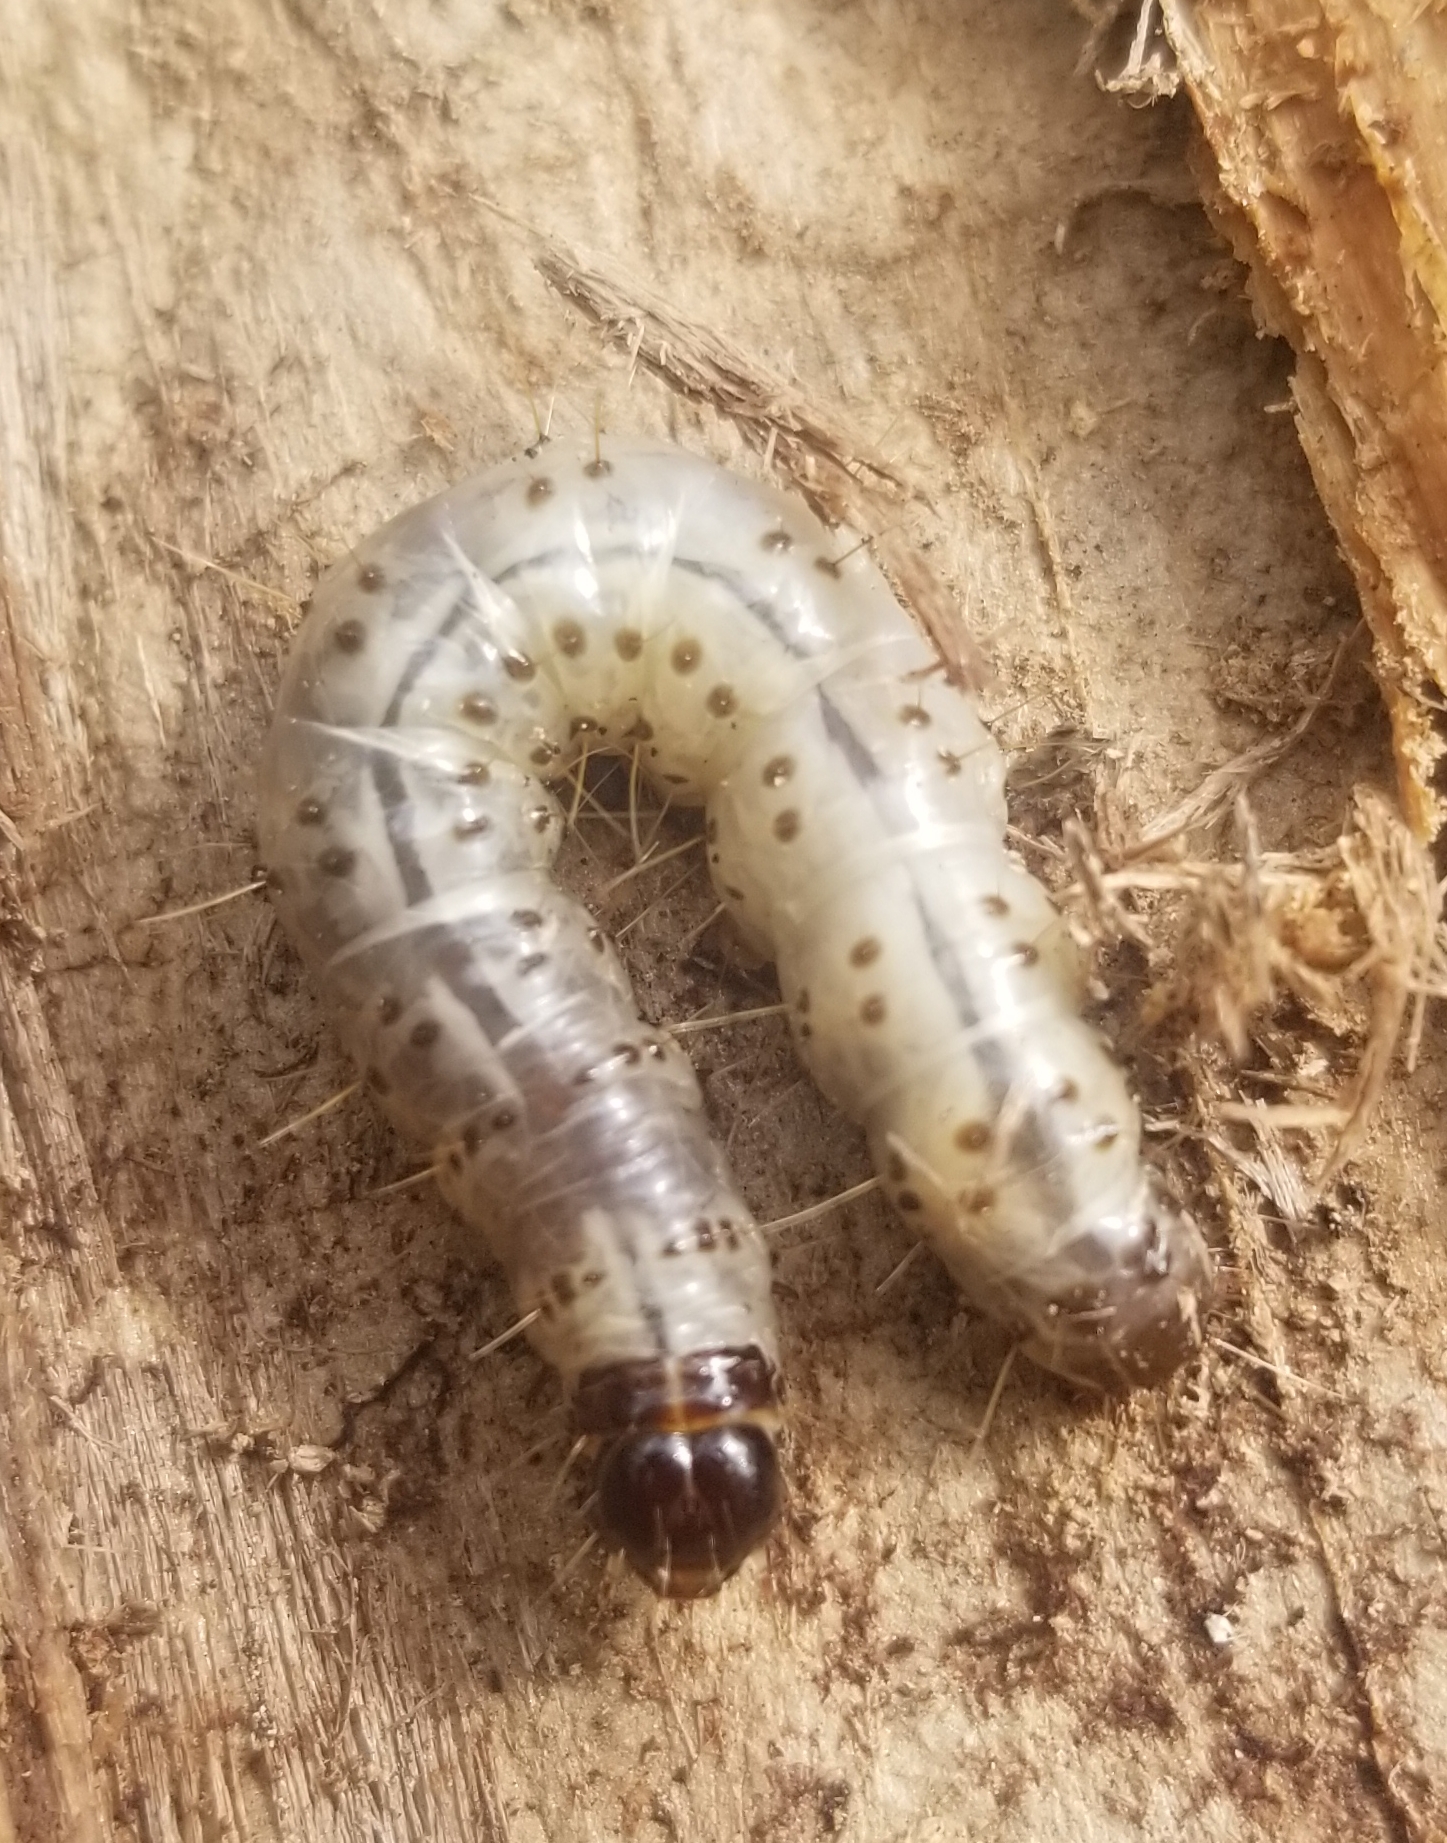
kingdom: Animalia
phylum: Arthropoda
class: Insecta
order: Lepidoptera
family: Erebidae
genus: Scolecocampa
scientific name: Scolecocampa liburna
